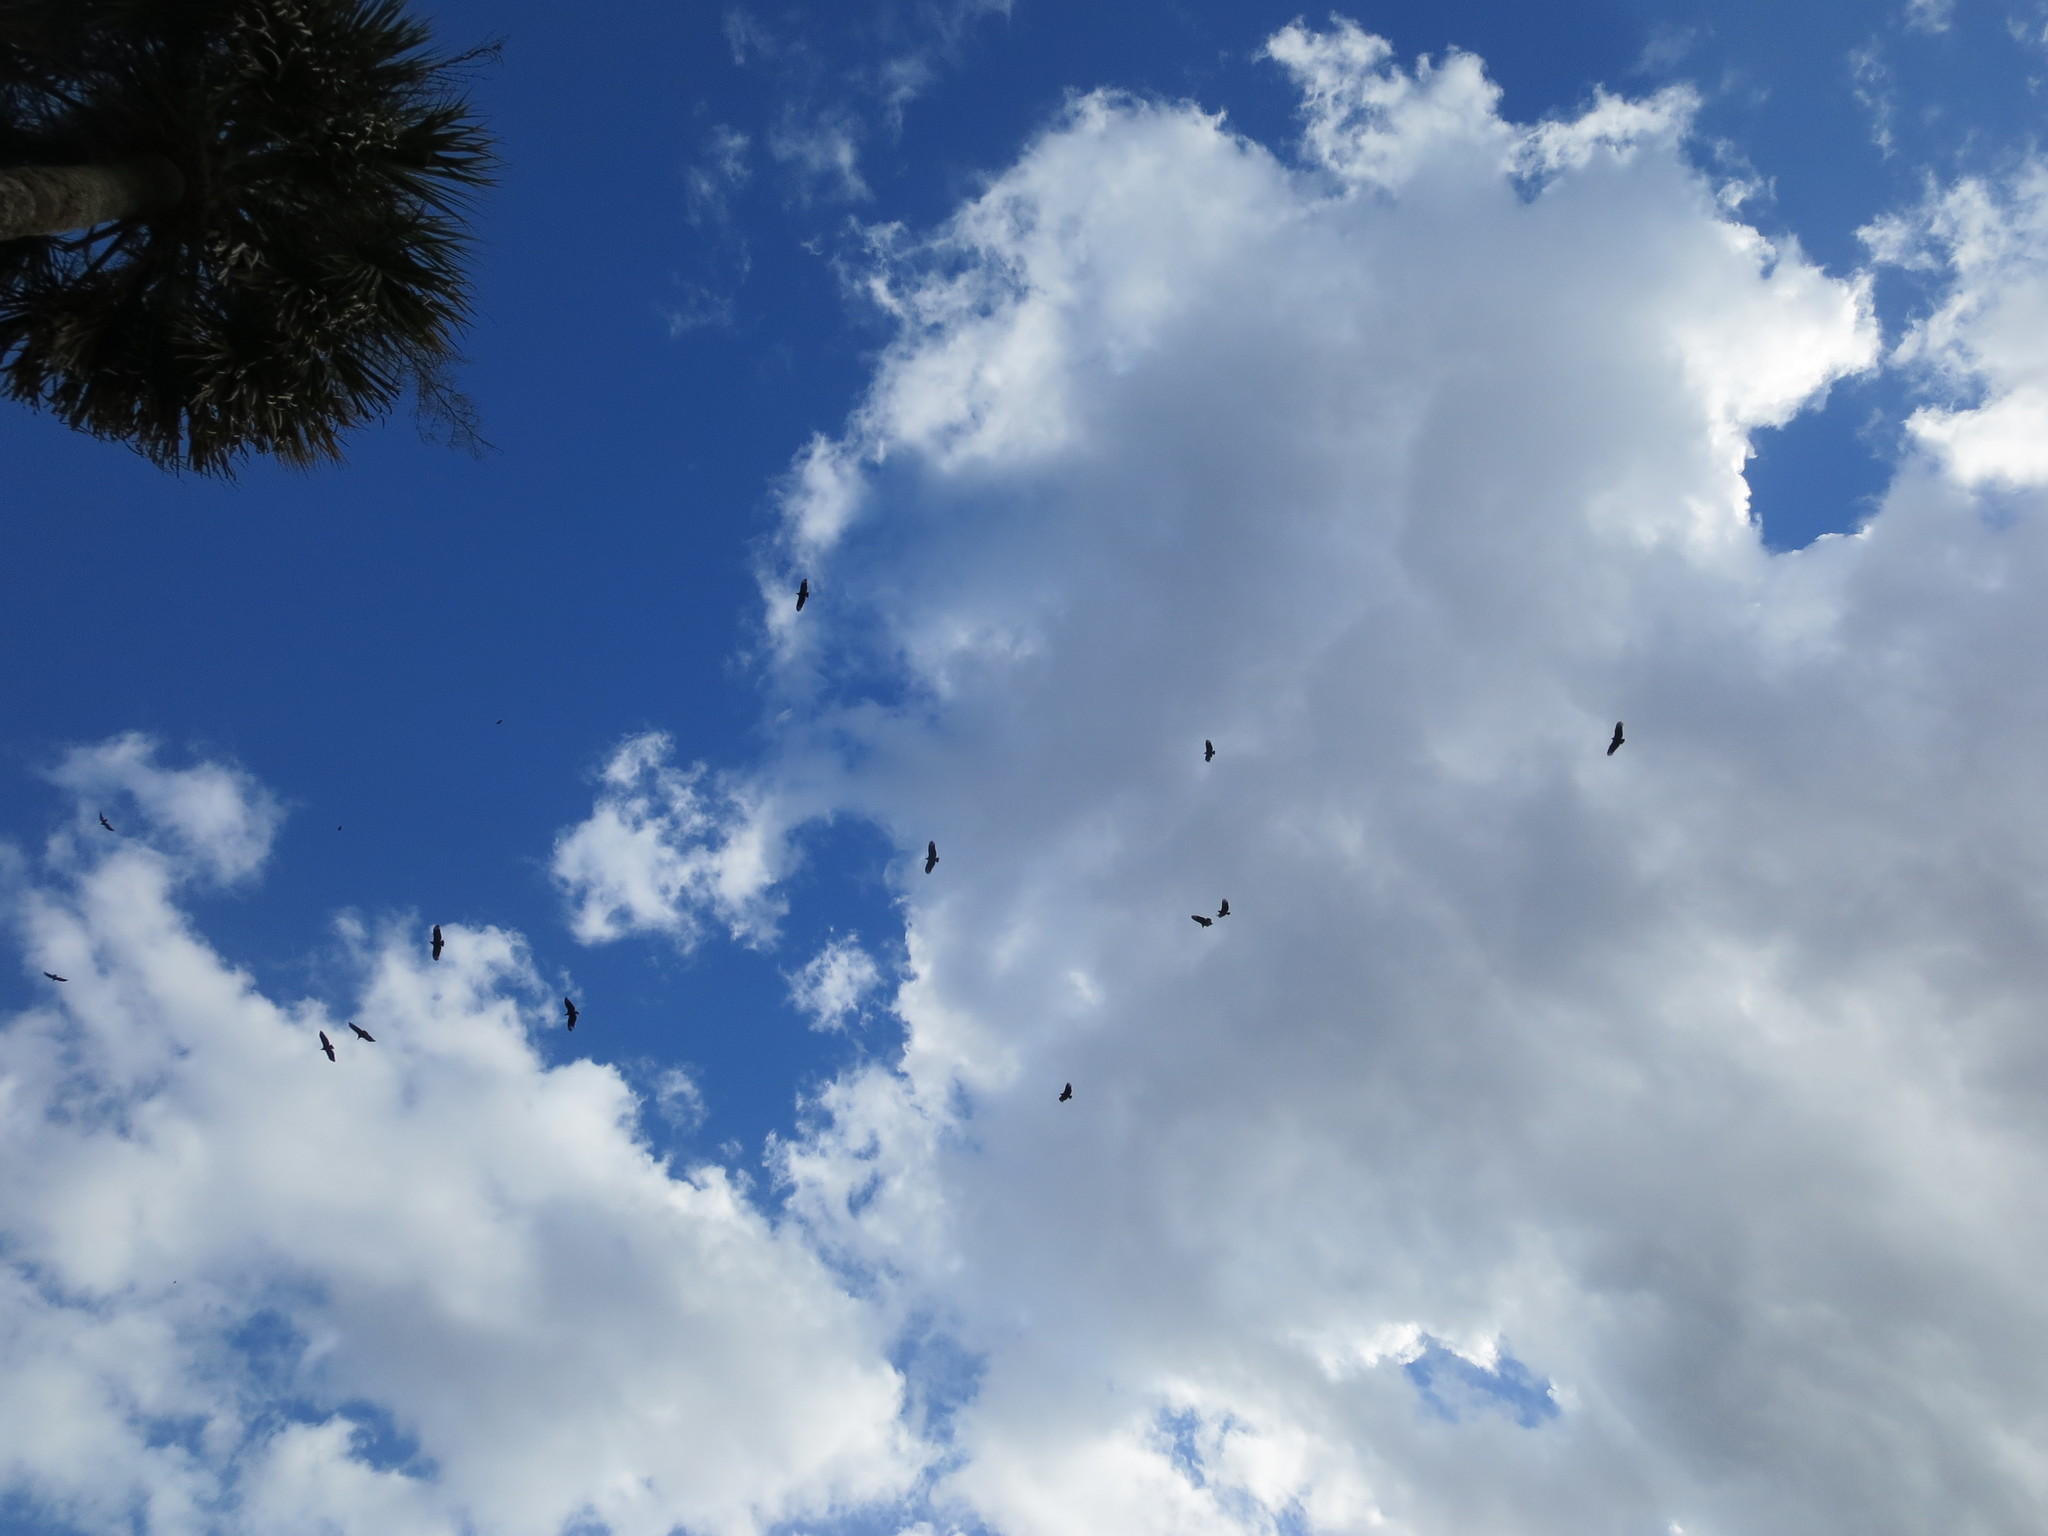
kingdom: Animalia
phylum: Chordata
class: Aves
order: Accipitriformes
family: Cathartidae
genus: Coragyps
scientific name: Coragyps atratus
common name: Black vulture
